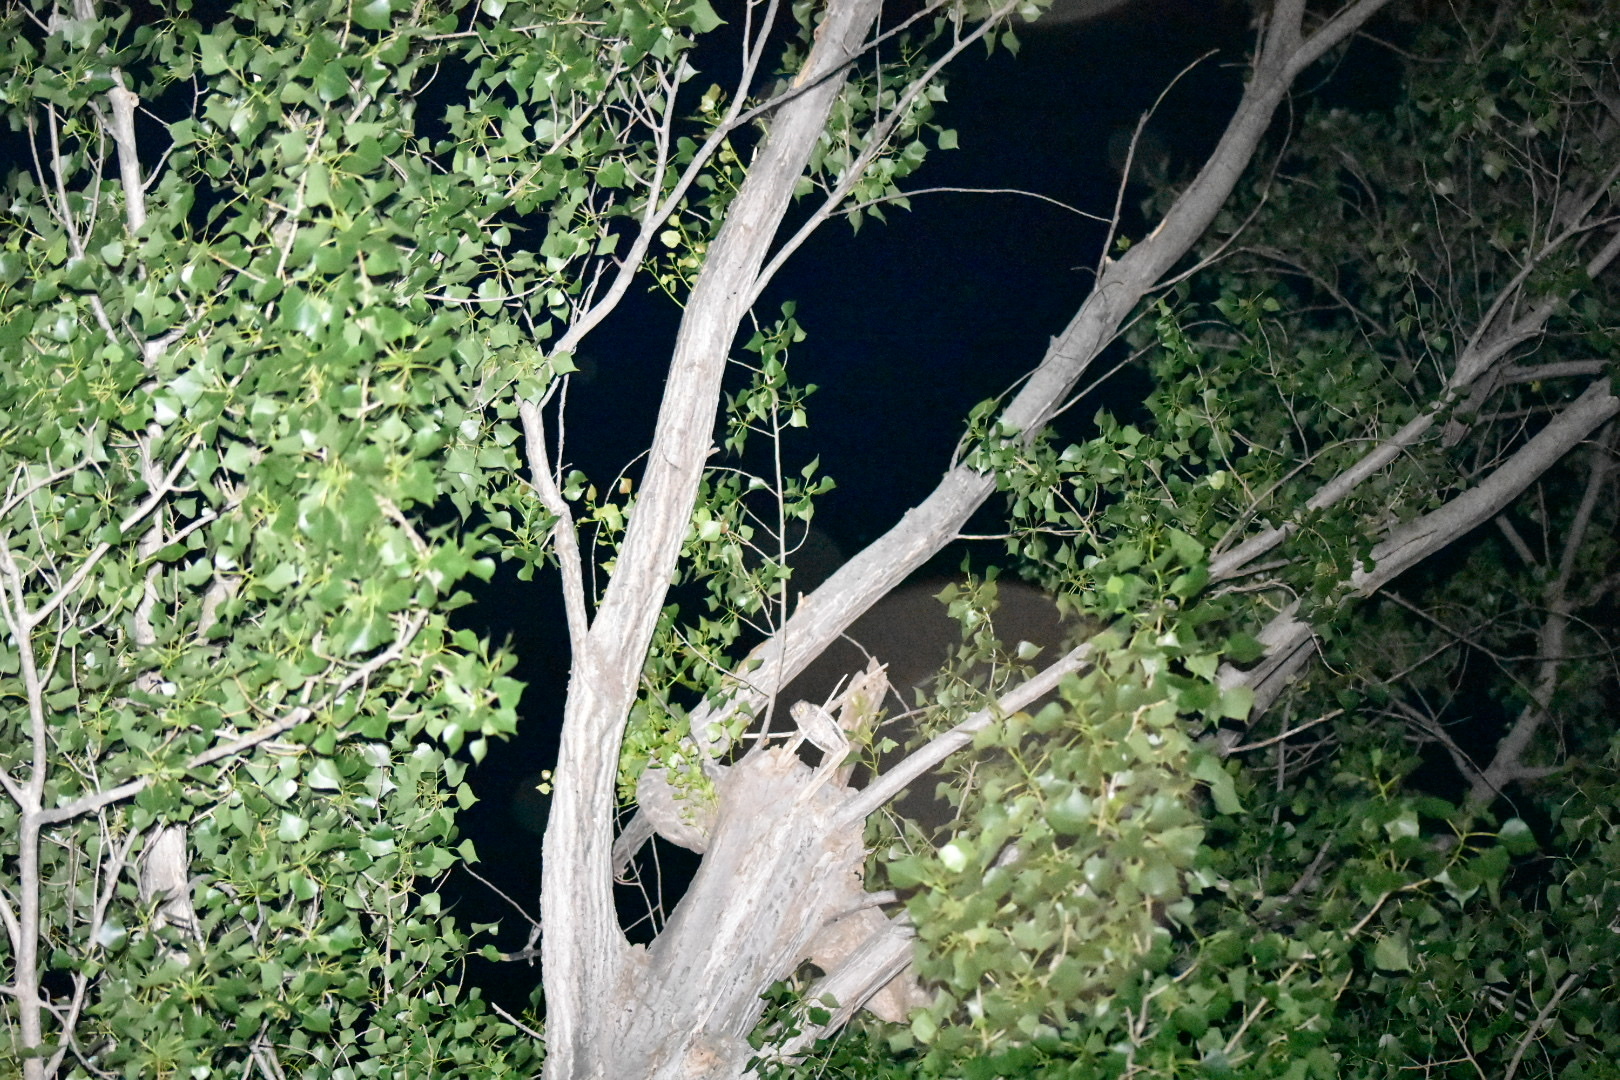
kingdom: Animalia
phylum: Chordata
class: Aves
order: Strigiformes
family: Strigidae
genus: Otus
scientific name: Otus scops
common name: Eurasian scops owl
